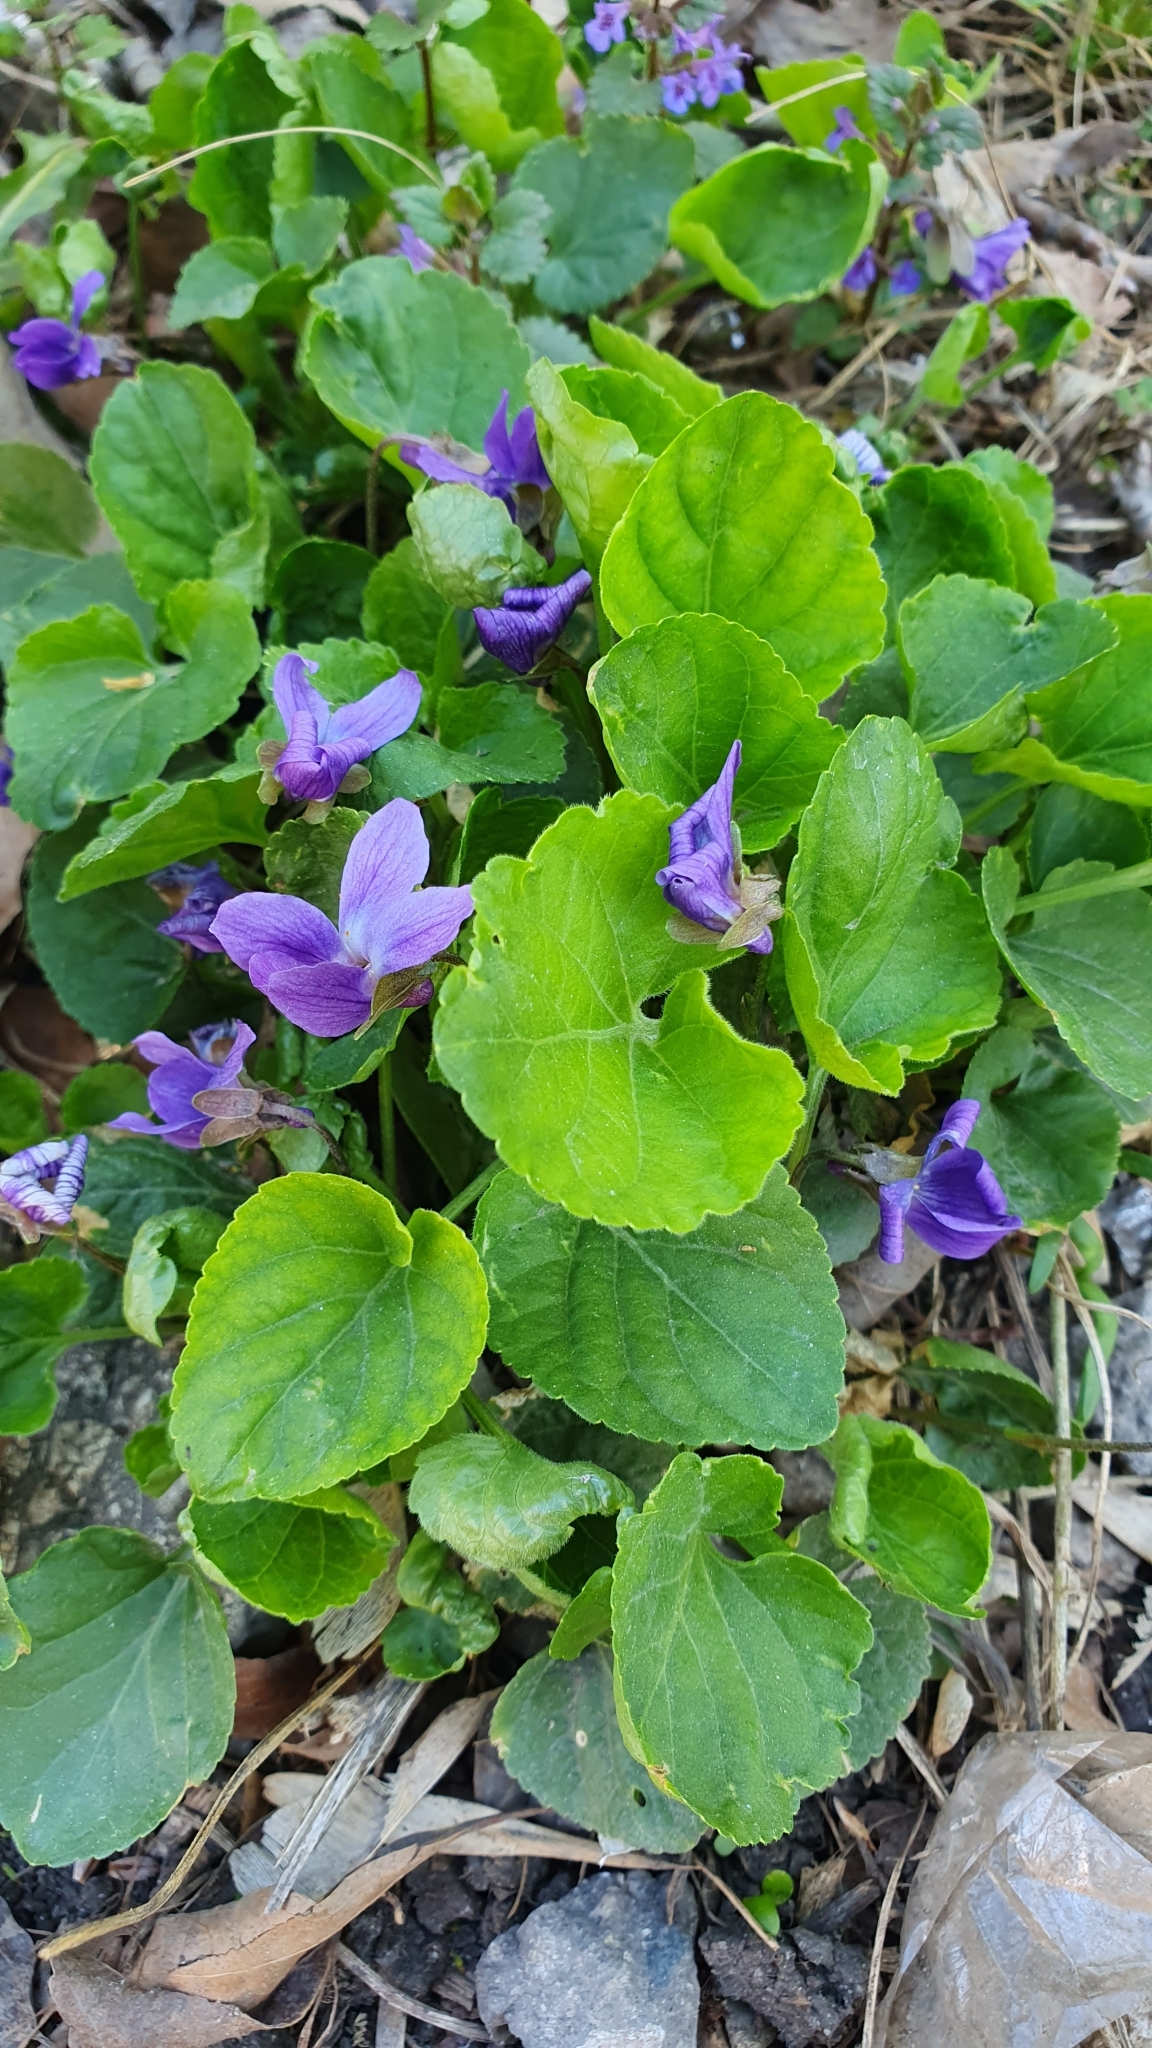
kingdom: Plantae
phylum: Tracheophyta
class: Magnoliopsida
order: Malpighiales
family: Violaceae
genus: Viola
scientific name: Viola odorata
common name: Sweet violet
